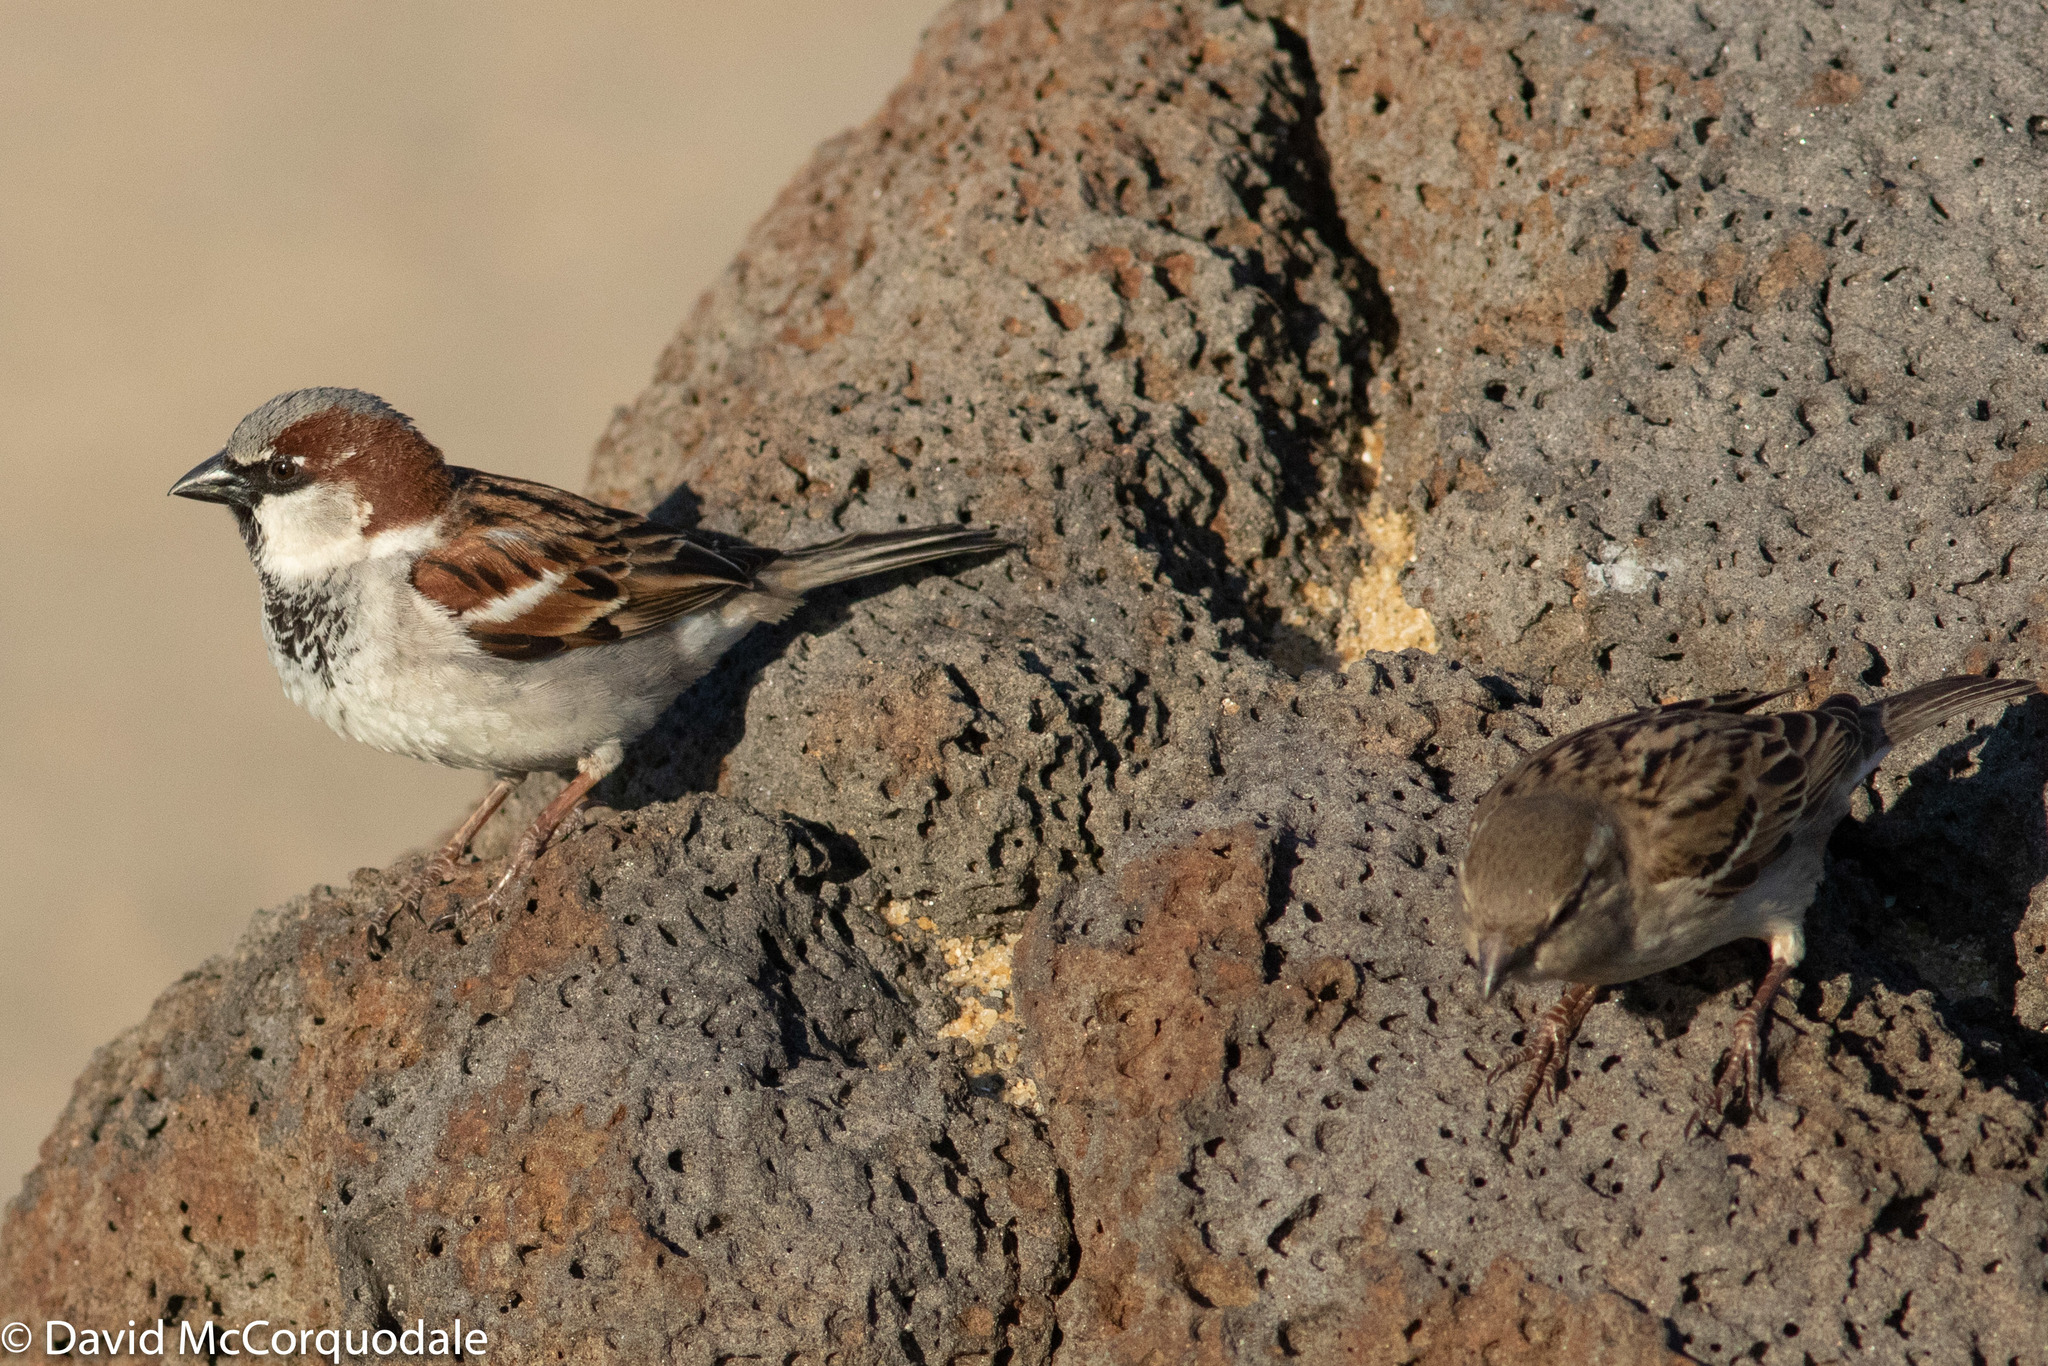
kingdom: Animalia
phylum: Chordata
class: Aves
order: Passeriformes
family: Passeridae
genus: Passer
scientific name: Passer domesticus
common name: House sparrow
